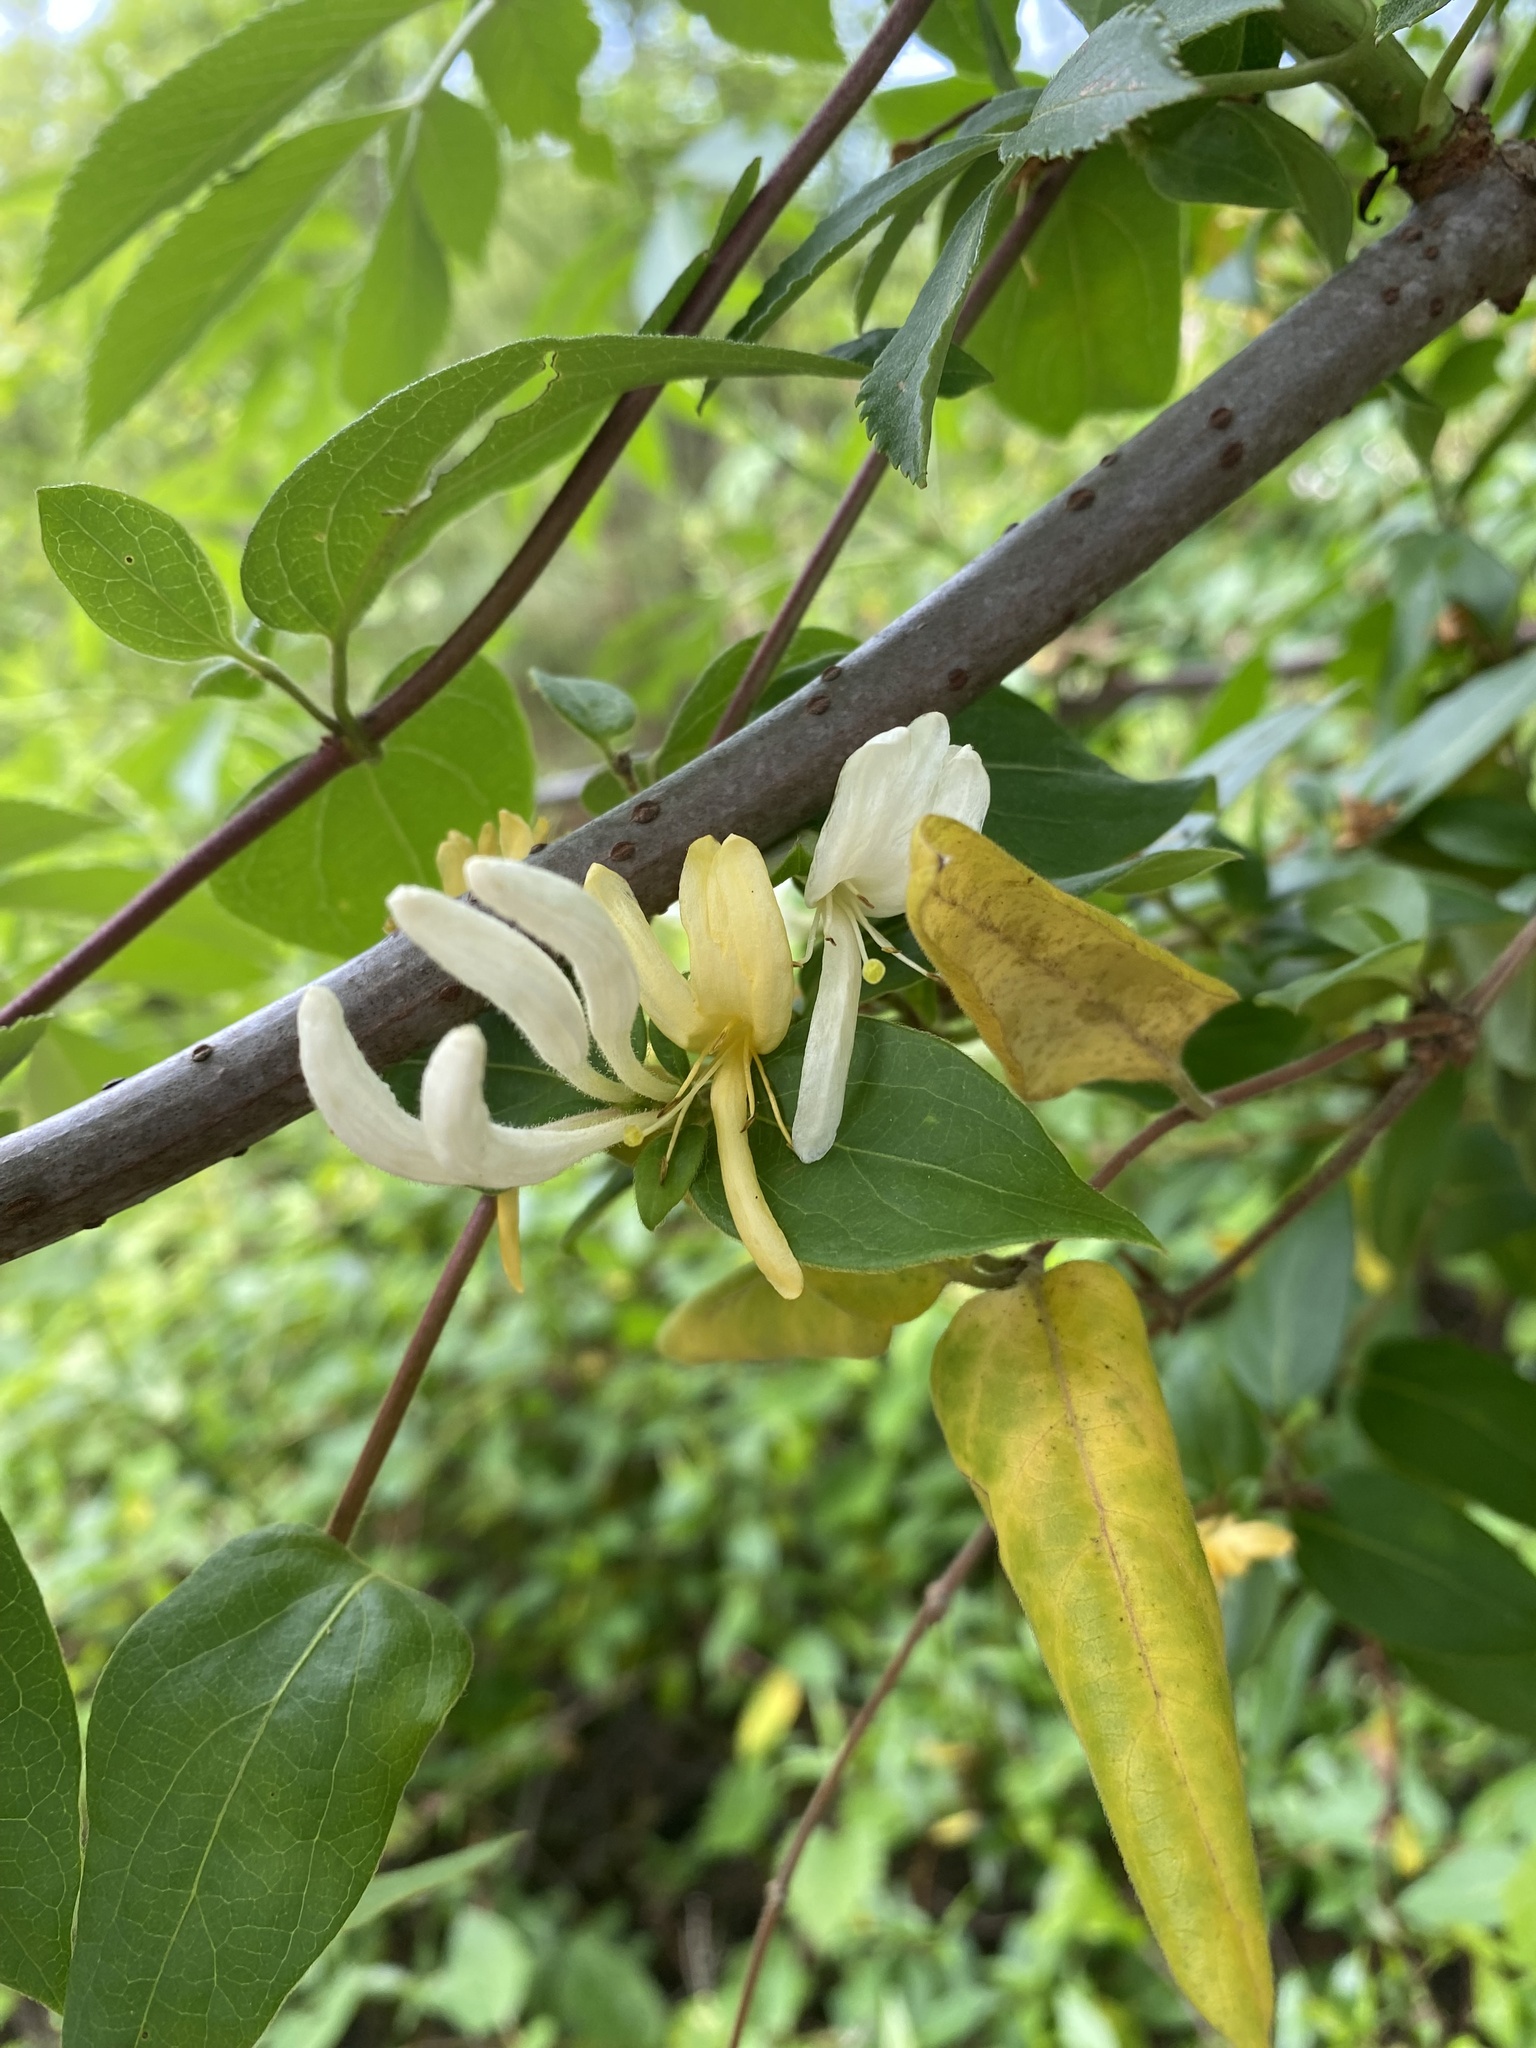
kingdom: Plantae
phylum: Tracheophyta
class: Magnoliopsida
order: Dipsacales
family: Caprifoliaceae
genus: Lonicera
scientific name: Lonicera japonica
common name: Japanese honeysuckle
